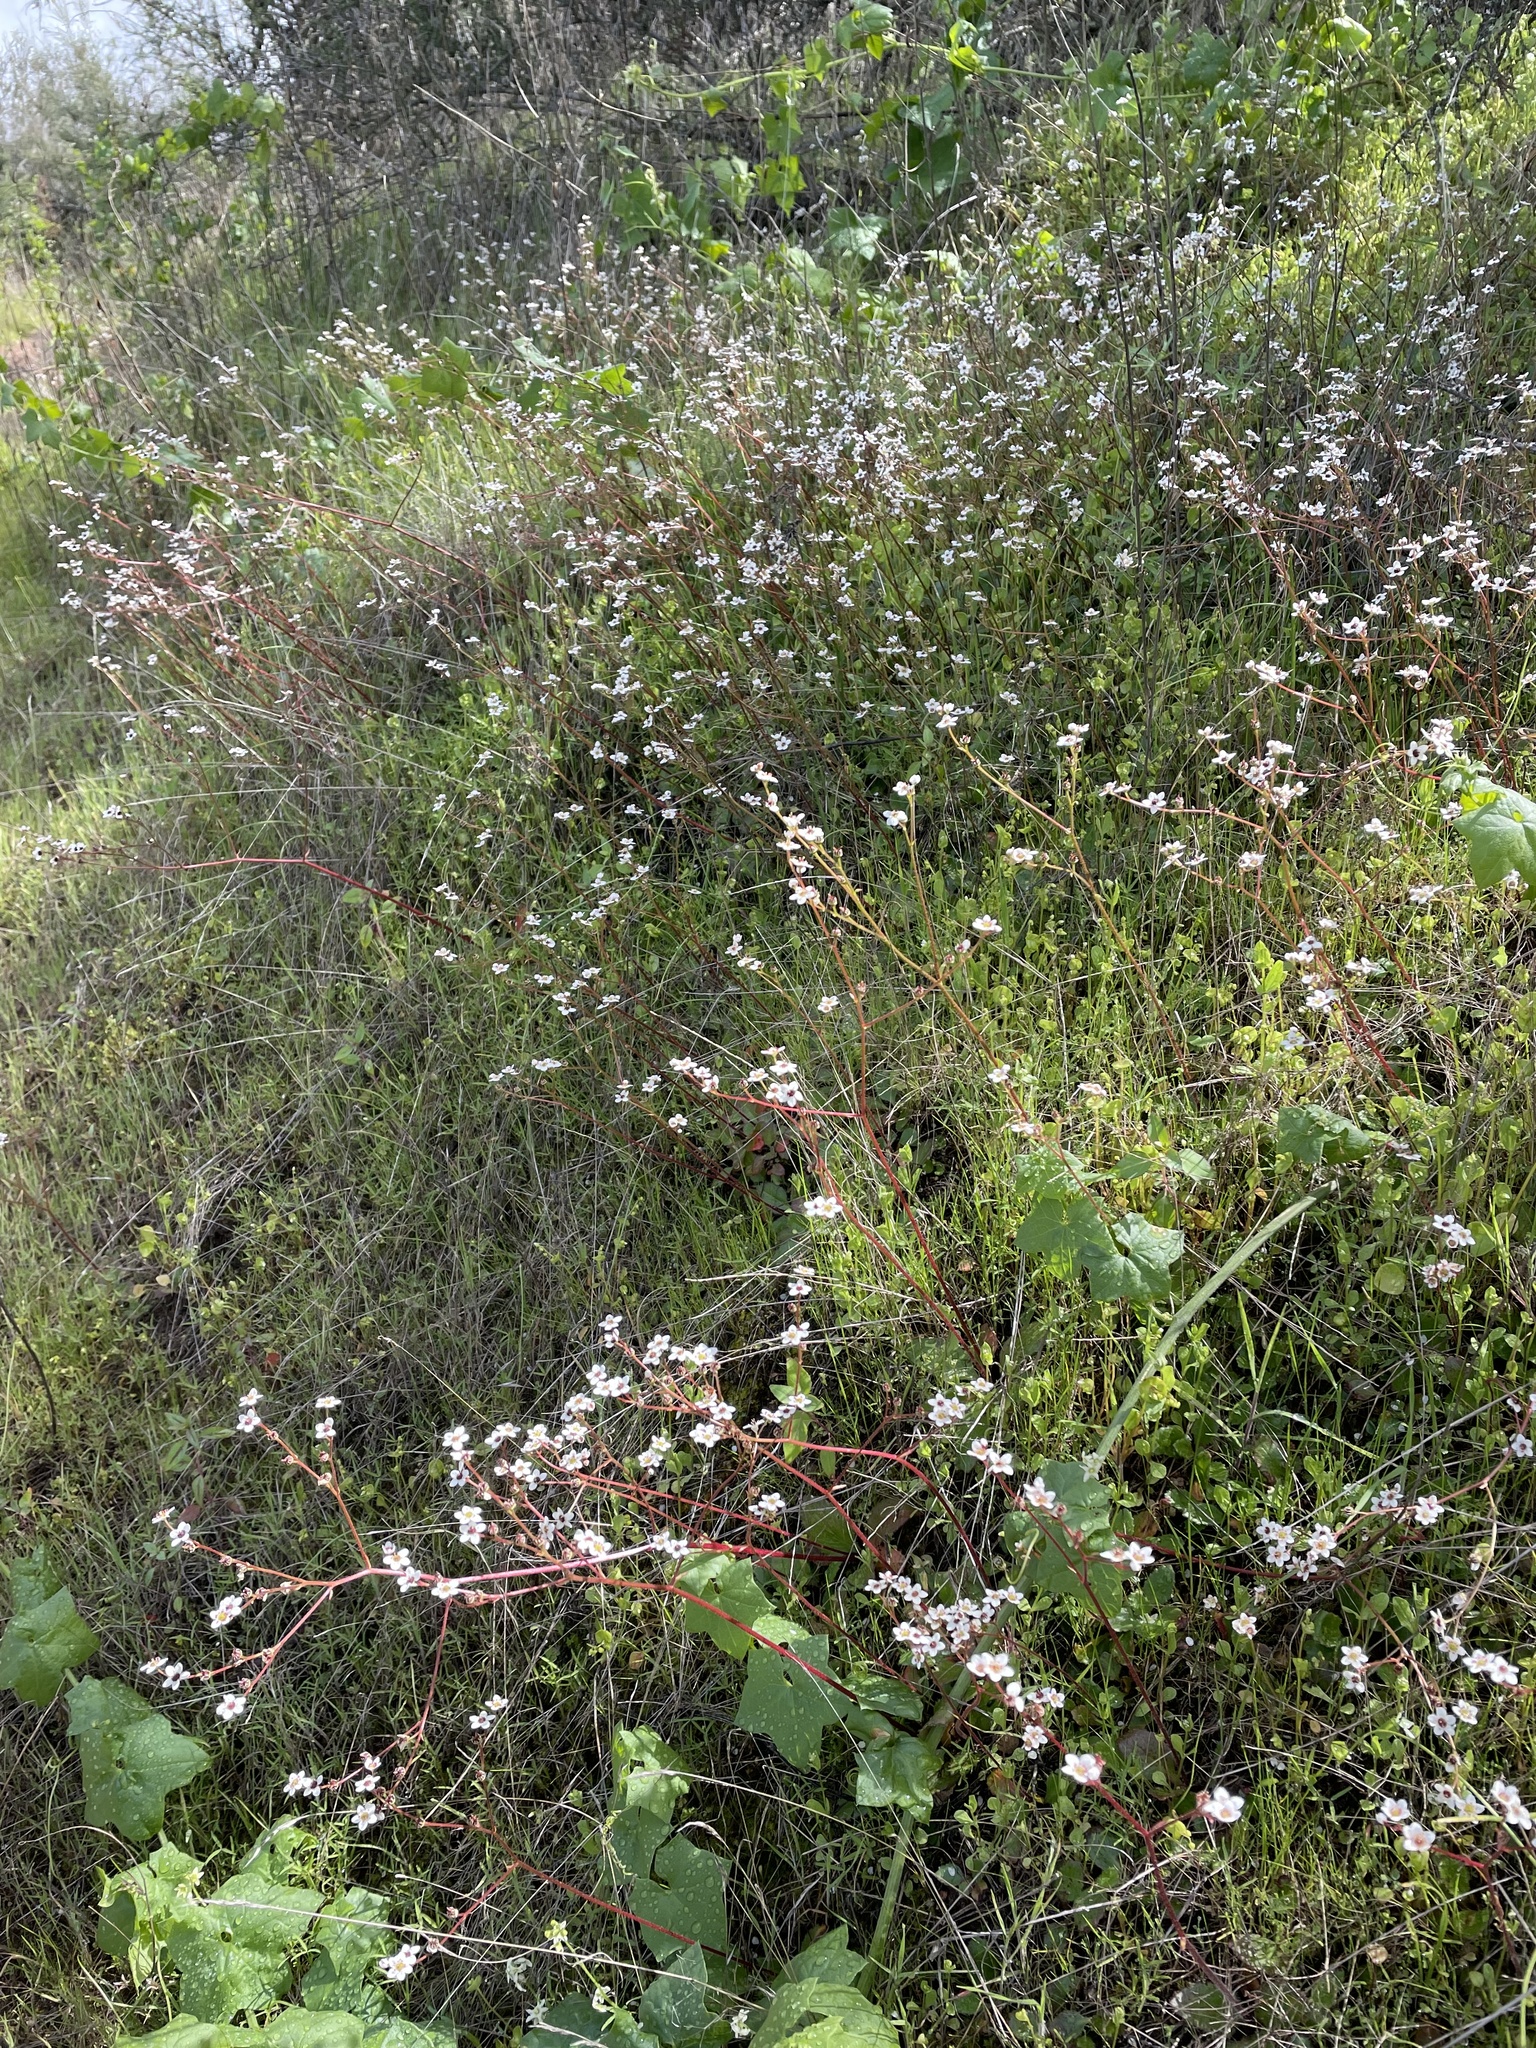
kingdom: Plantae
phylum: Tracheophyta
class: Magnoliopsida
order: Saxifragales
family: Saxifragaceae
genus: Micranthes
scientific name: Micranthes californica
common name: California saxifrage
